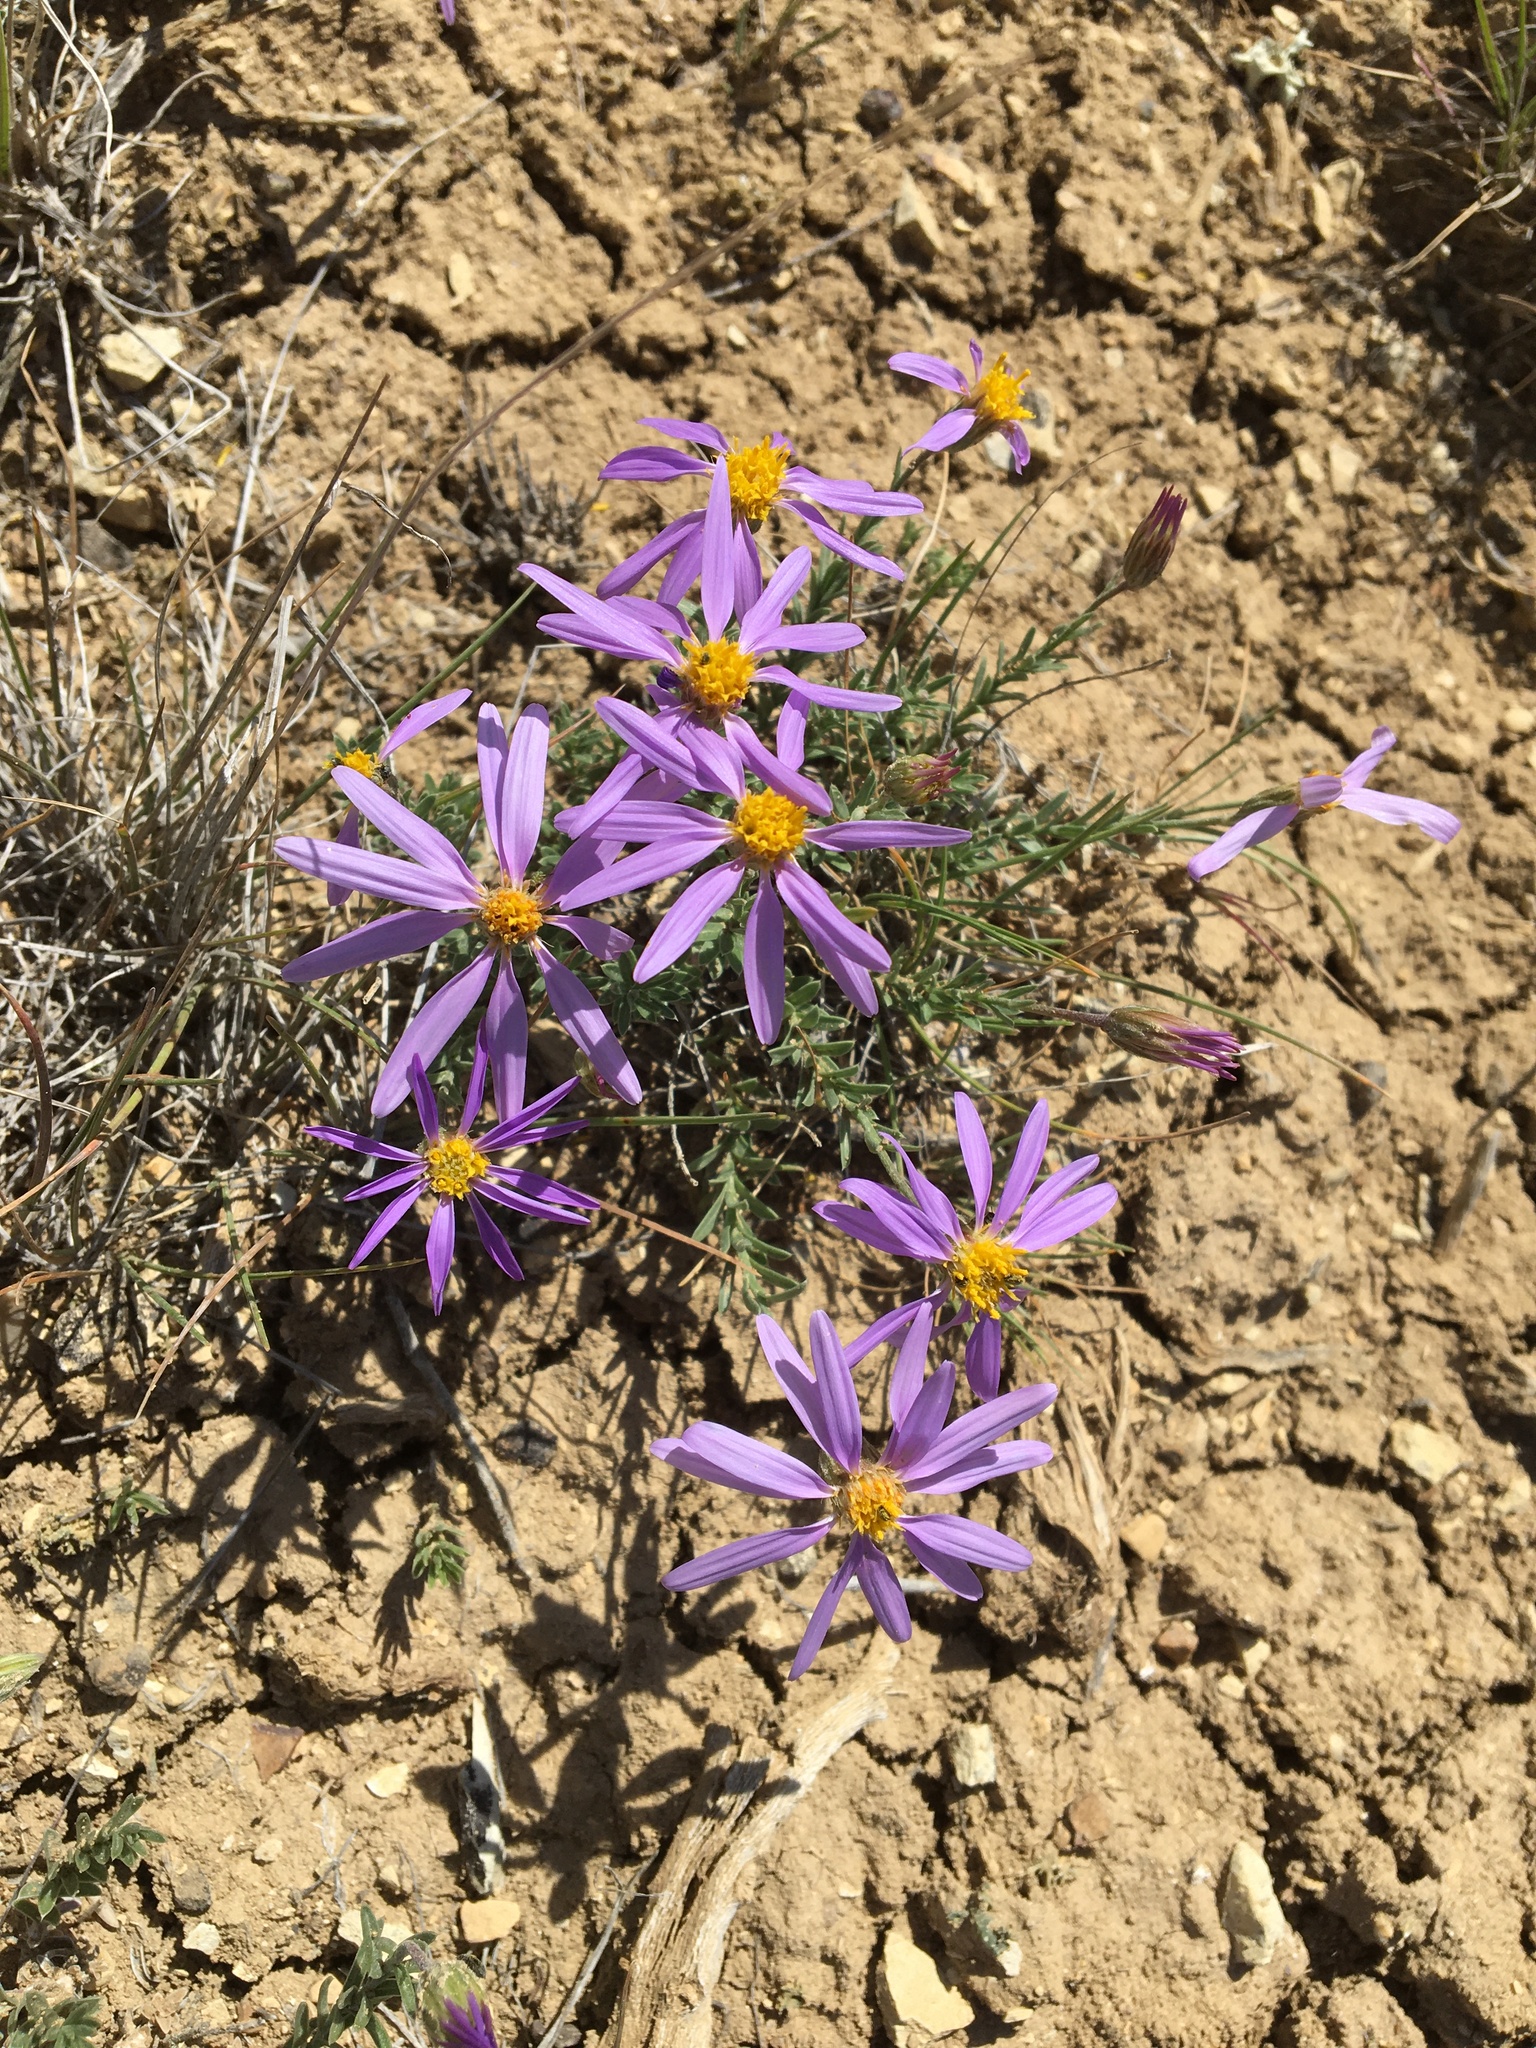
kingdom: Plantae
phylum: Tracheophyta
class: Magnoliopsida
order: Asterales
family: Asteraceae
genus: Ionactis
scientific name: Ionactis alpina
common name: Crag aster
